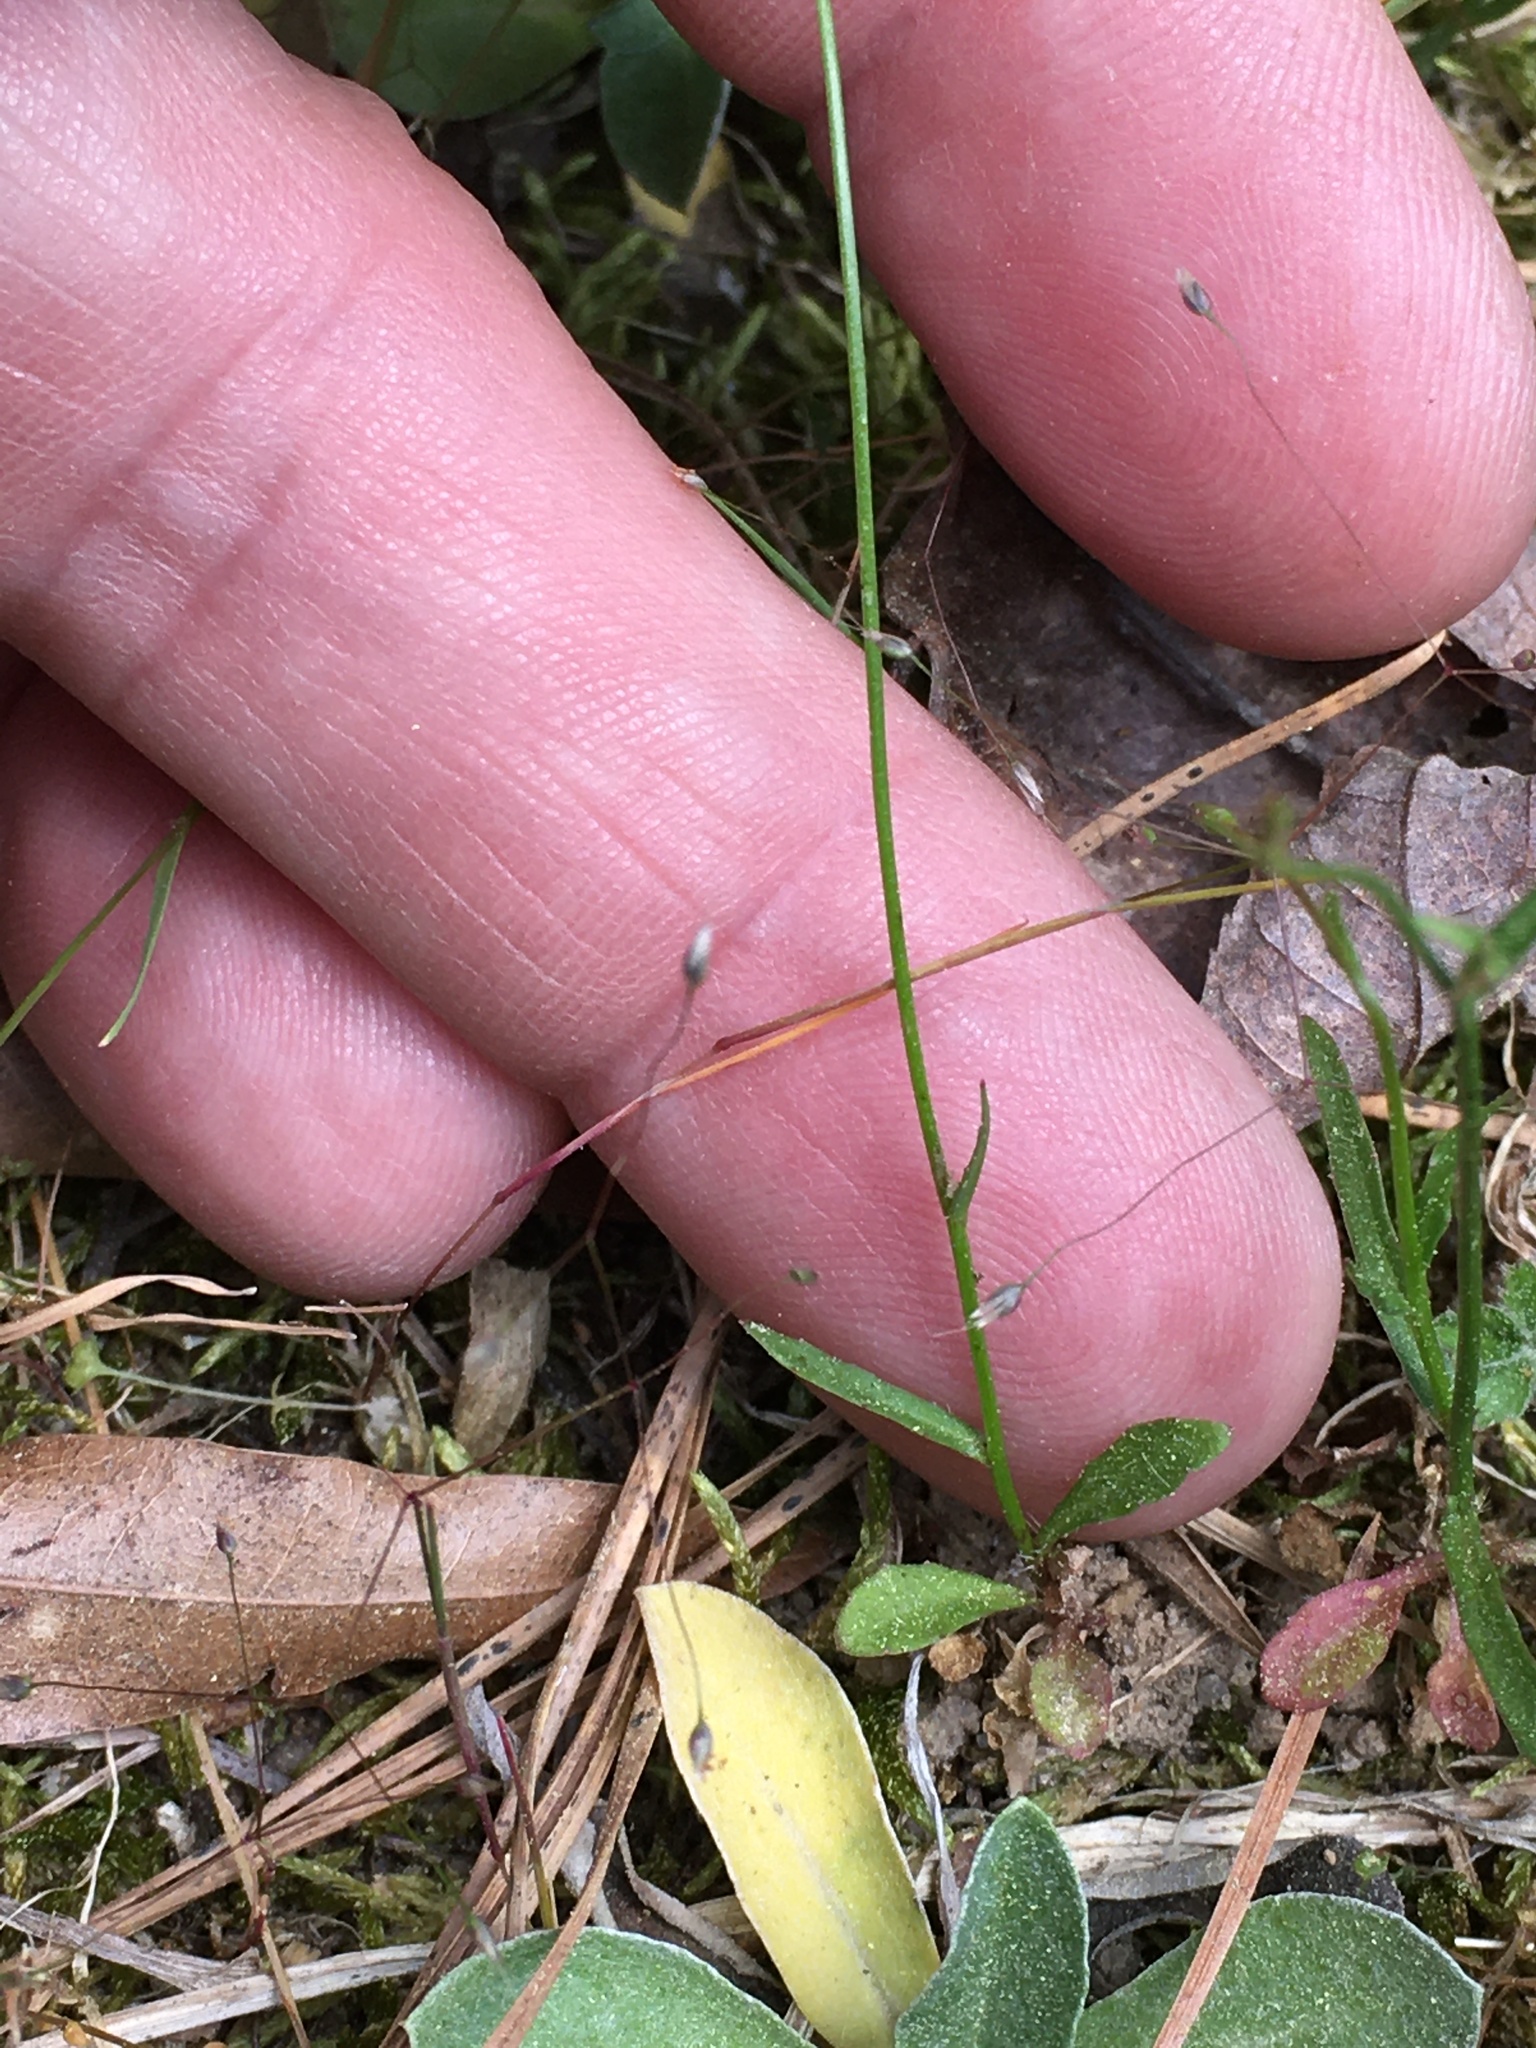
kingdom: Plantae
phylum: Tracheophyta
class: Magnoliopsida
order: Asterales
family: Campanulaceae
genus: Wahlenbergia
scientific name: Wahlenbergia marginata
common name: Southern rockbell
